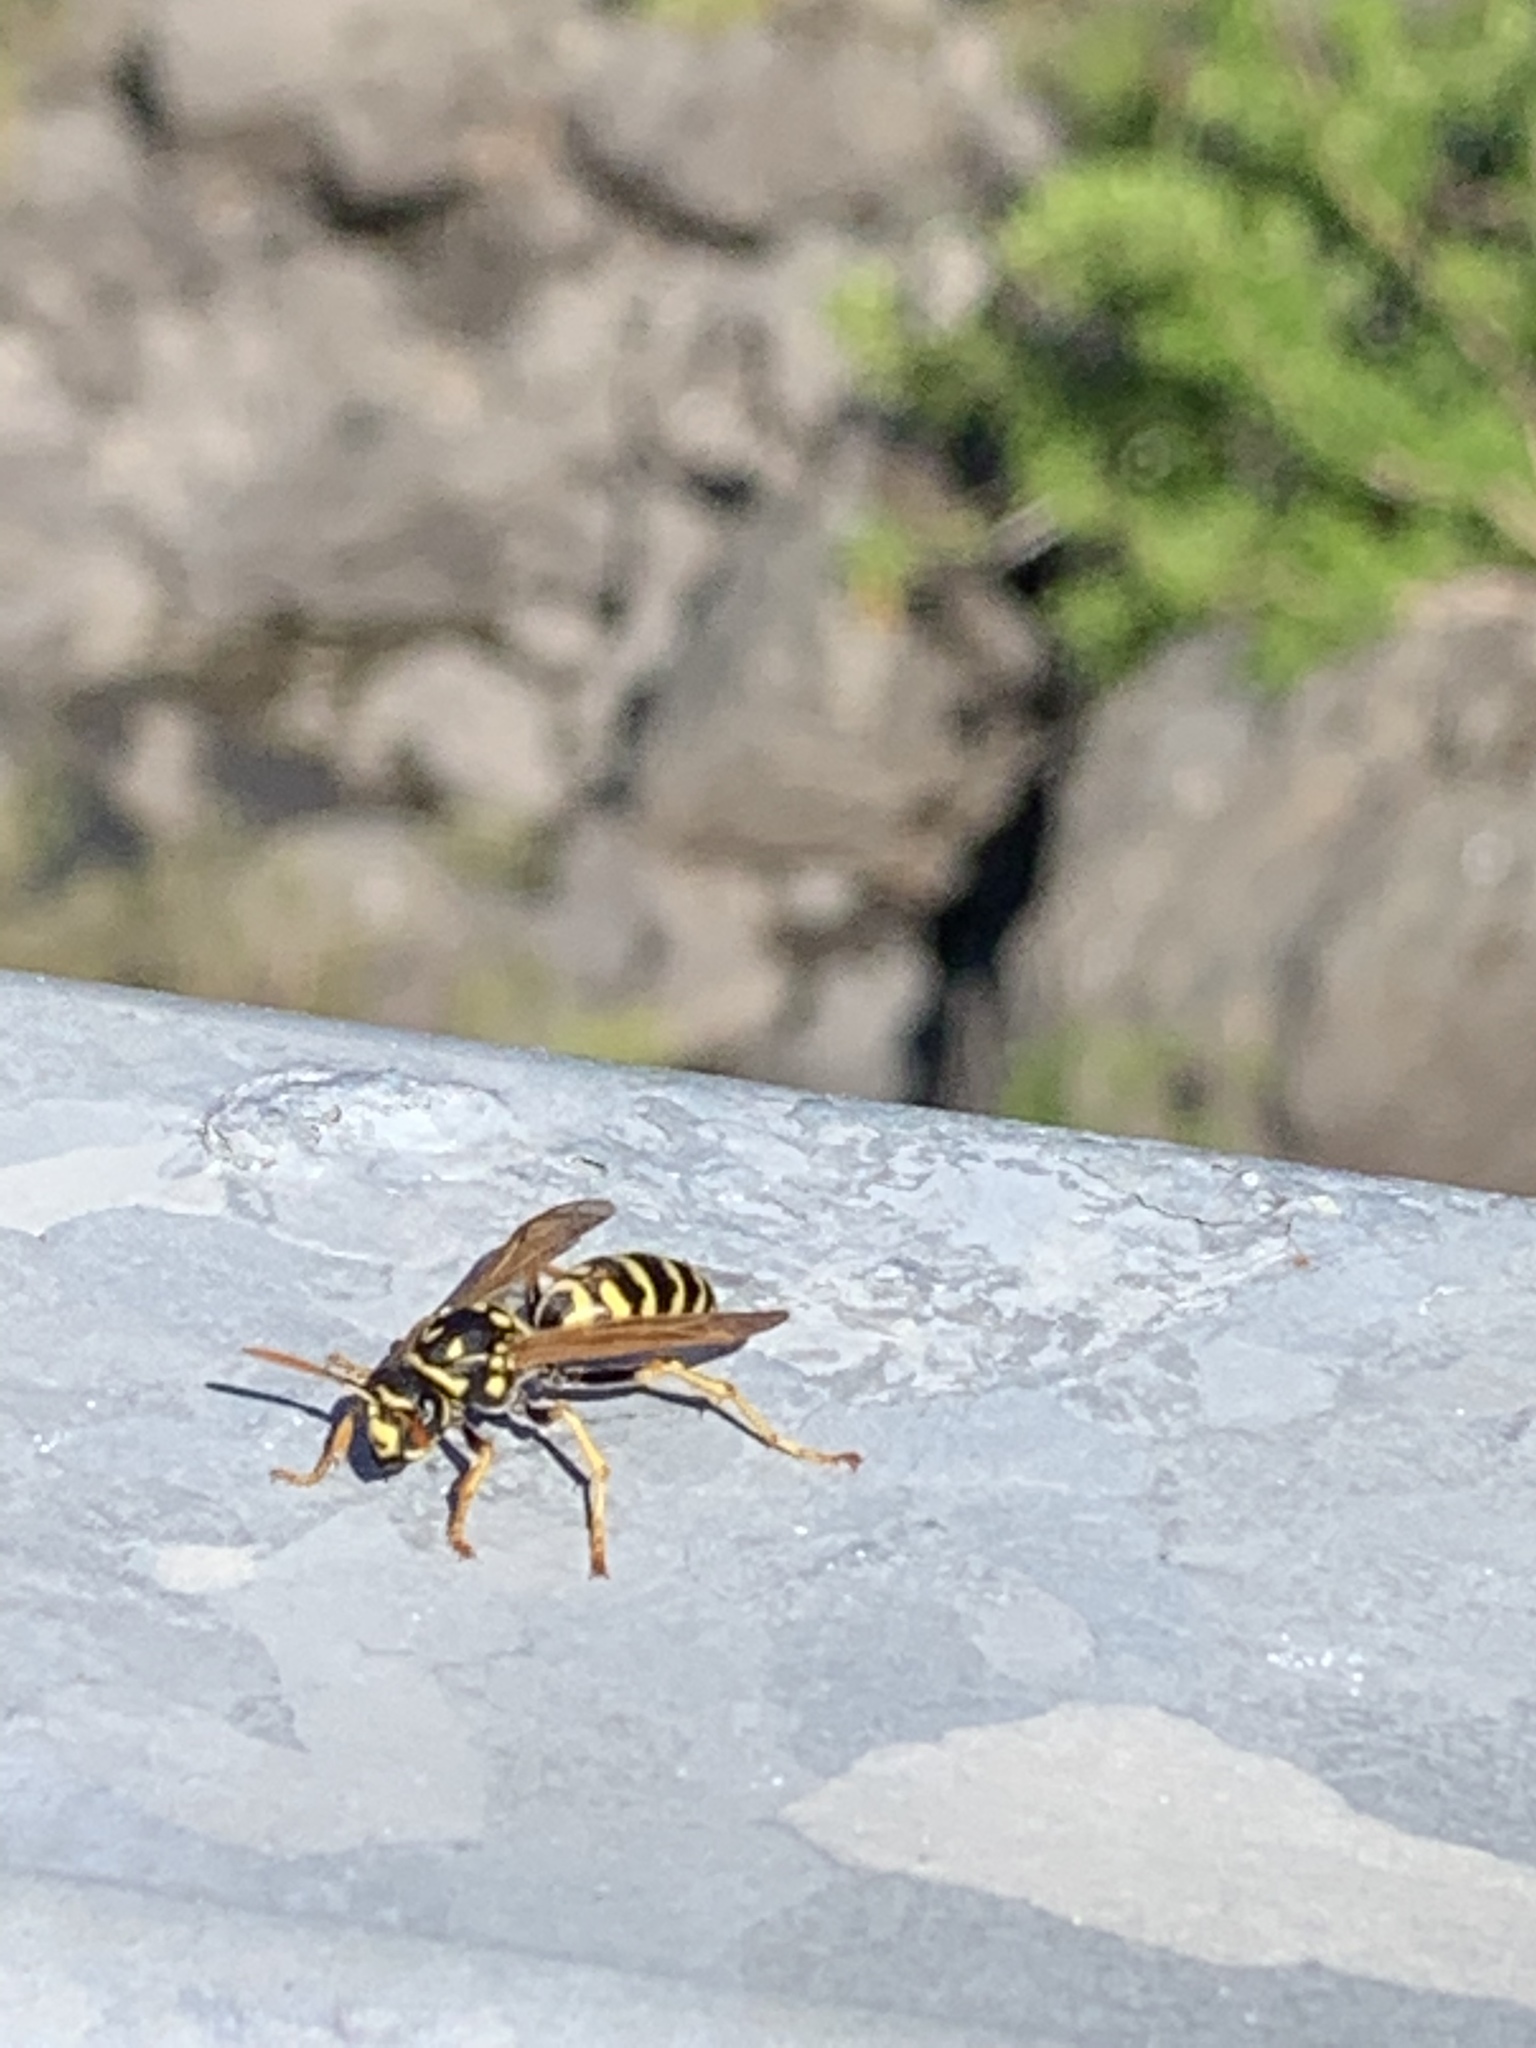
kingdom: Animalia
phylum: Arthropoda
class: Insecta
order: Hymenoptera
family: Eumenidae
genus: Polistes
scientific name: Polistes dominula
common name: Paper wasp
